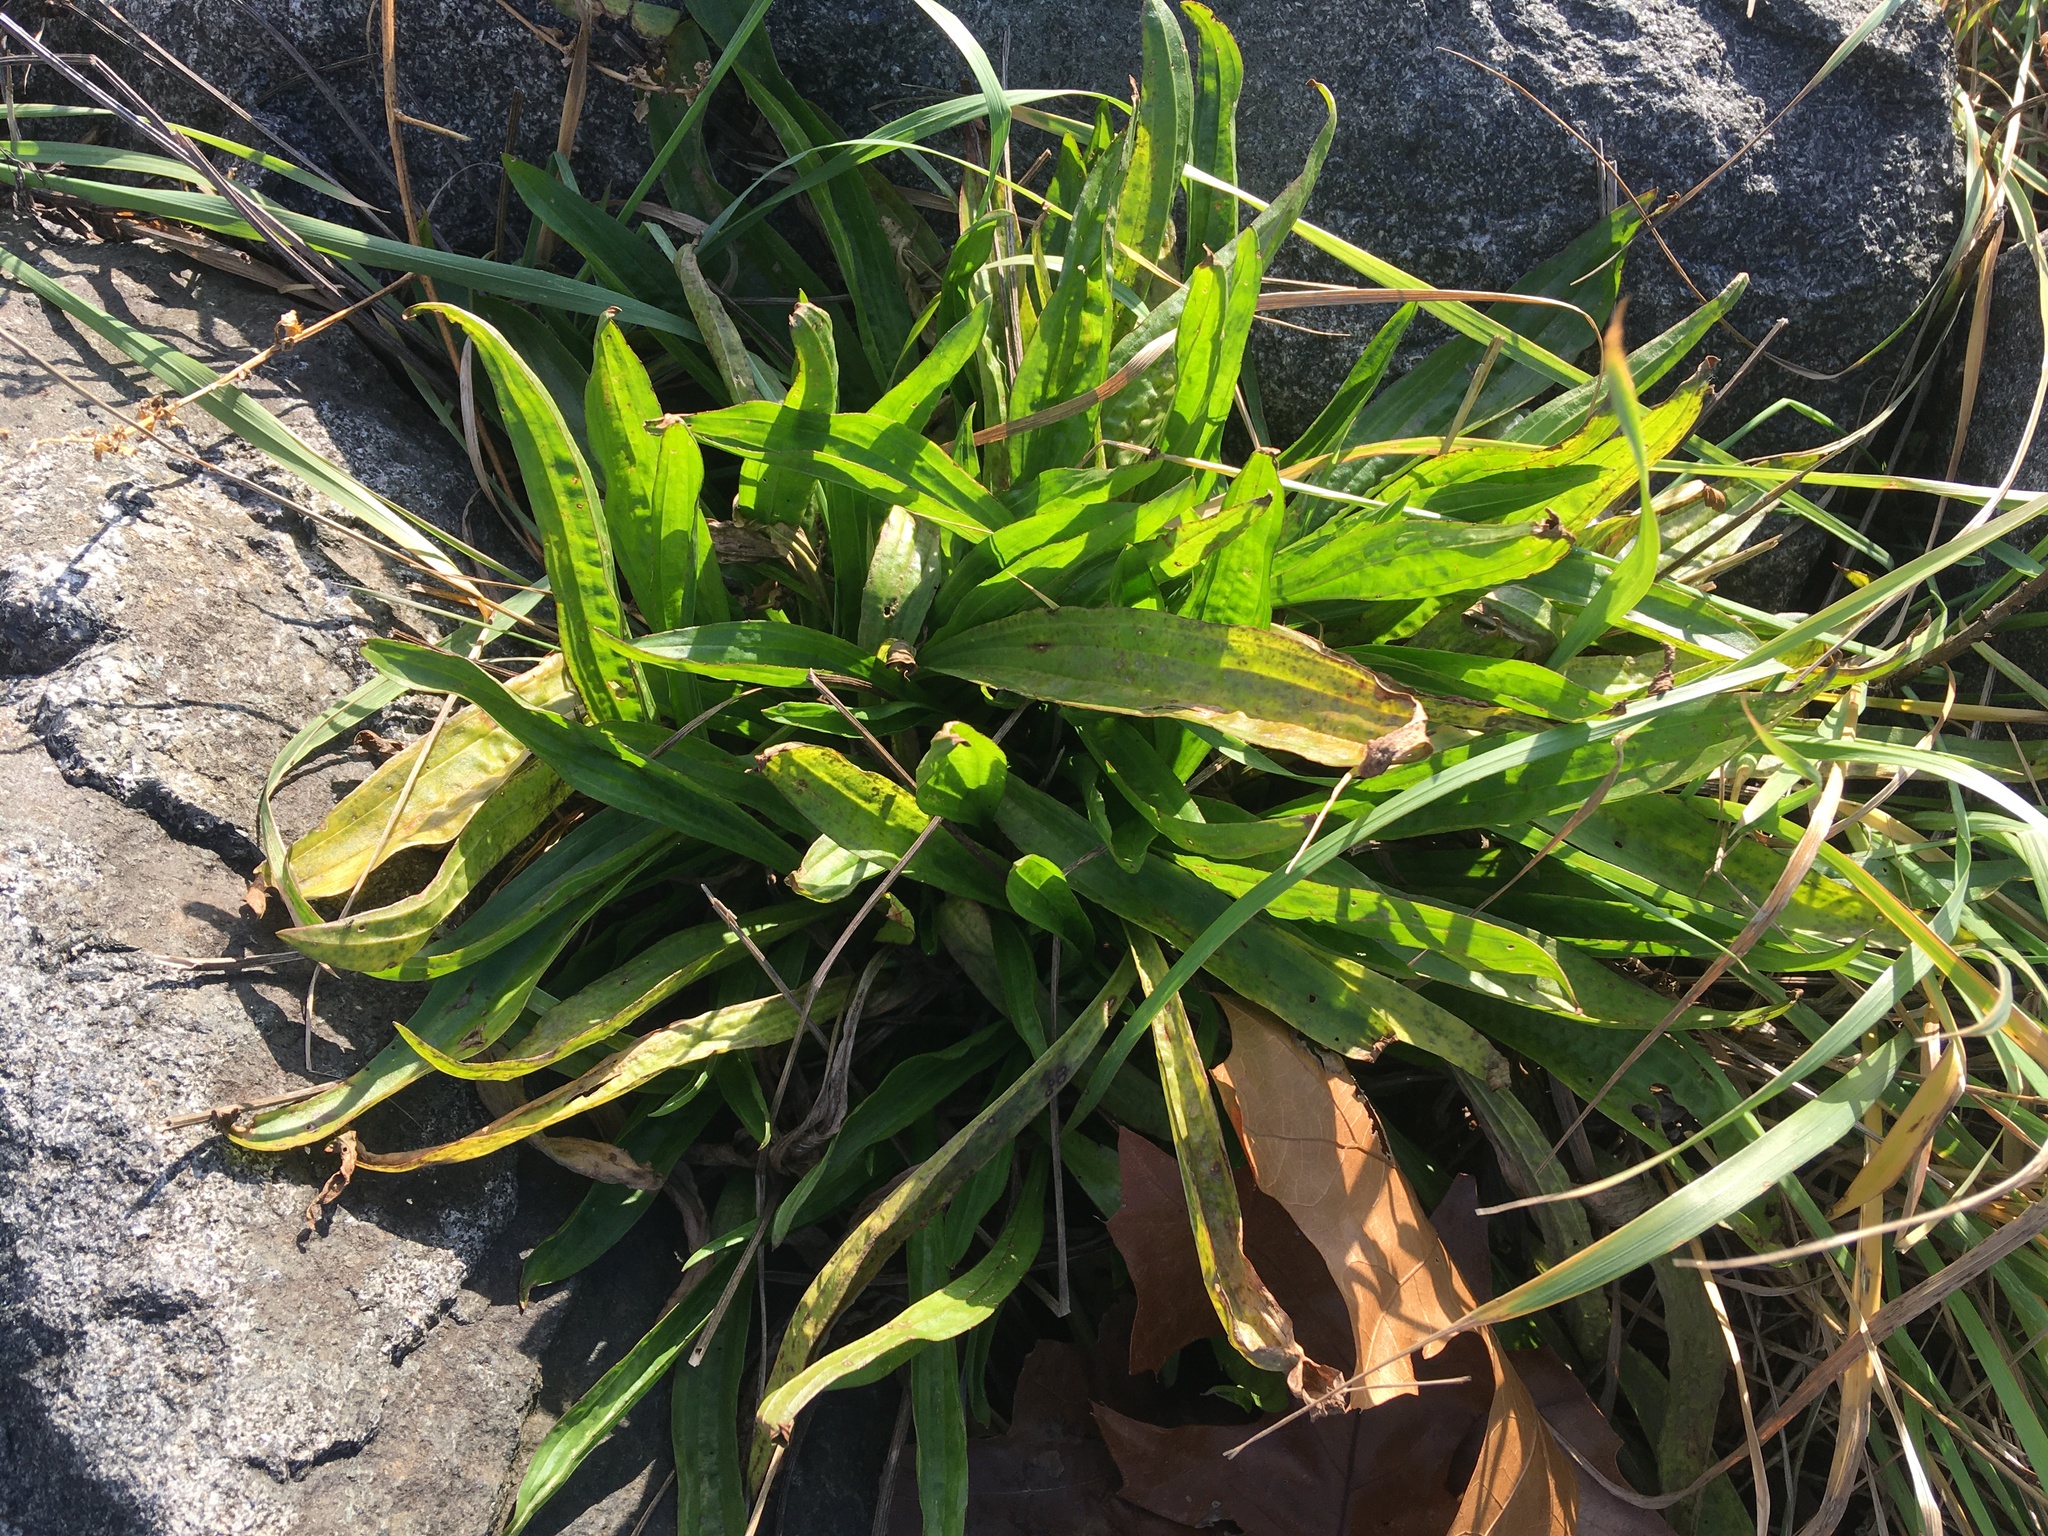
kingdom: Plantae
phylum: Tracheophyta
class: Magnoliopsida
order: Lamiales
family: Plantaginaceae
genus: Plantago
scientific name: Plantago lanceolata
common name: Ribwort plantain
